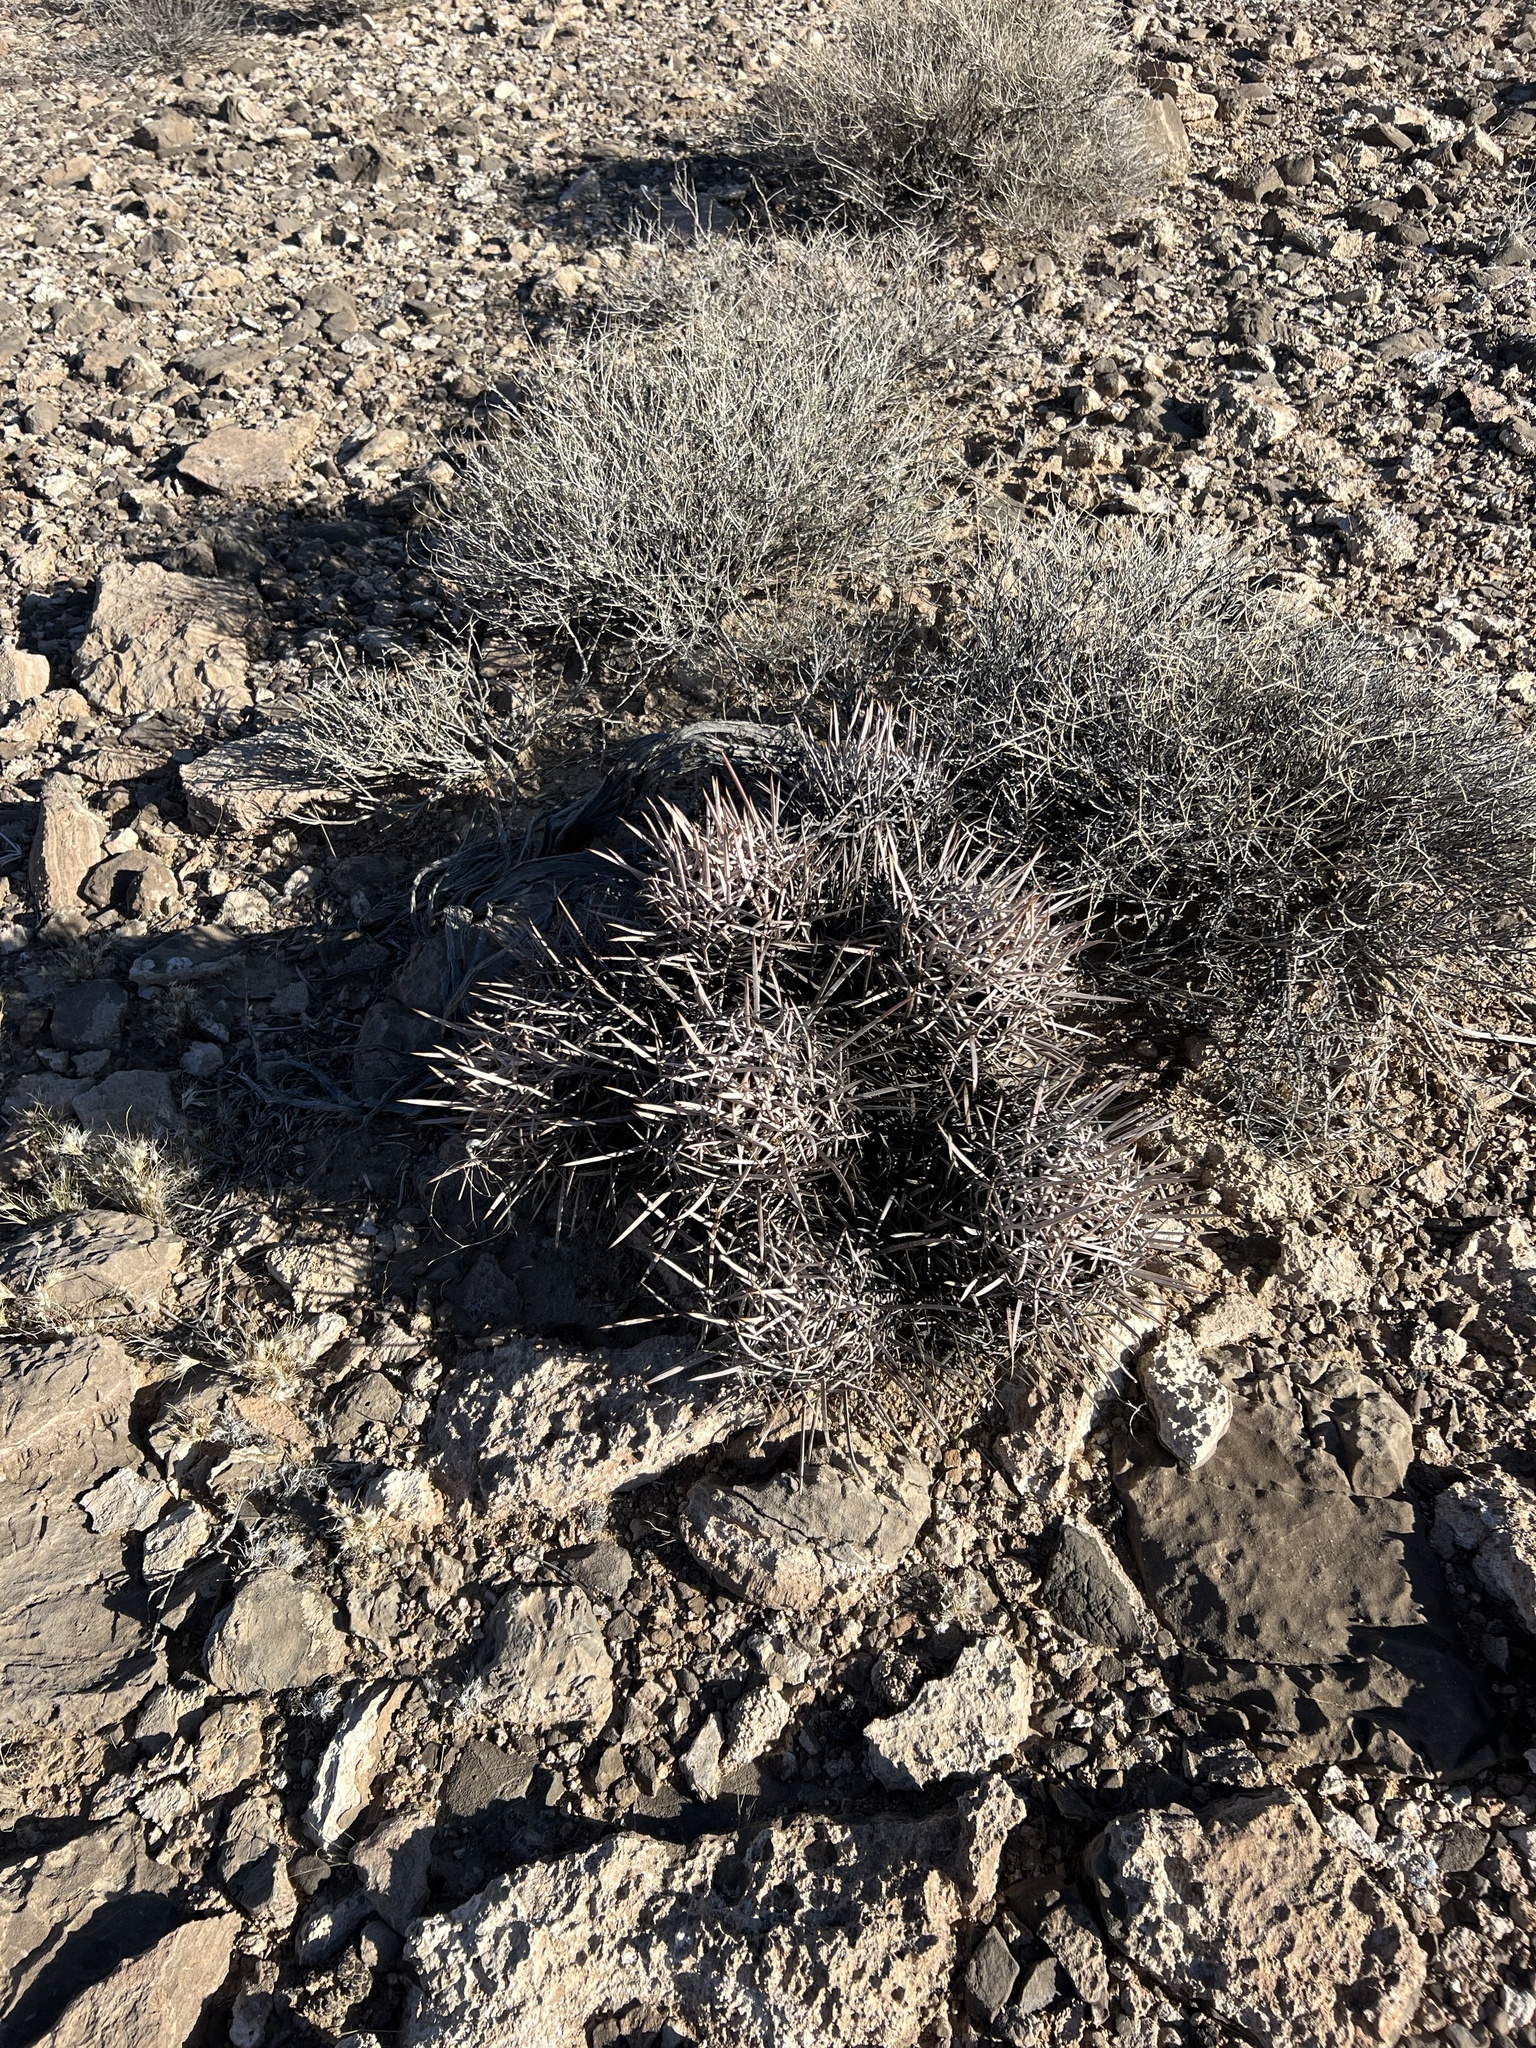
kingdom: Plantae
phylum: Tracheophyta
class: Magnoliopsida
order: Caryophyllales
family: Cactaceae
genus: Echinocactus
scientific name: Echinocactus polycephalus
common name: Cottontop cactus
